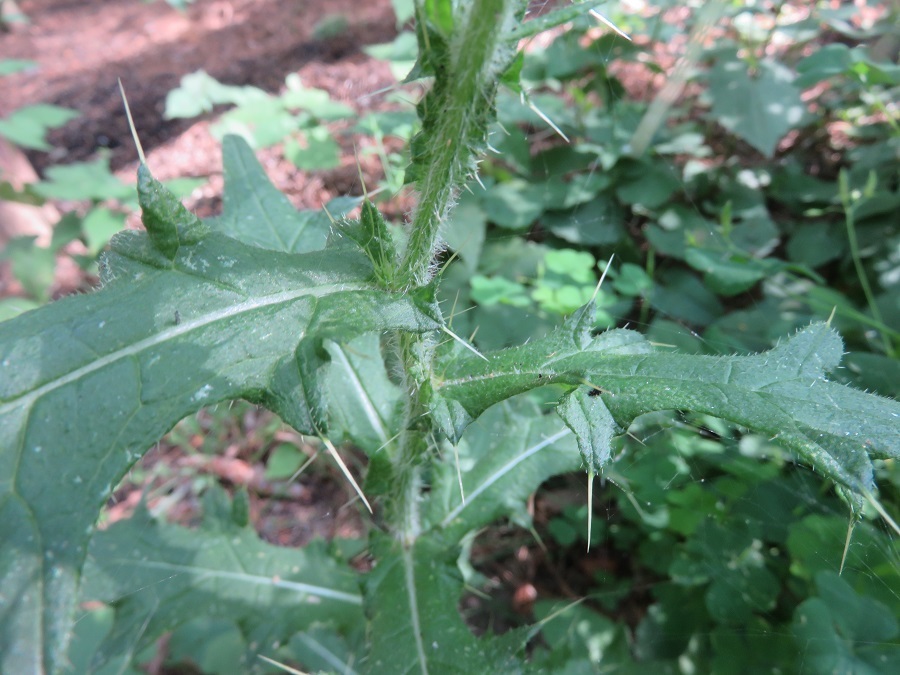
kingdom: Plantae
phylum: Tracheophyta
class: Magnoliopsida
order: Asterales
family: Asteraceae
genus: Cirsium
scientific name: Cirsium vulgare
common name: Bull thistle
